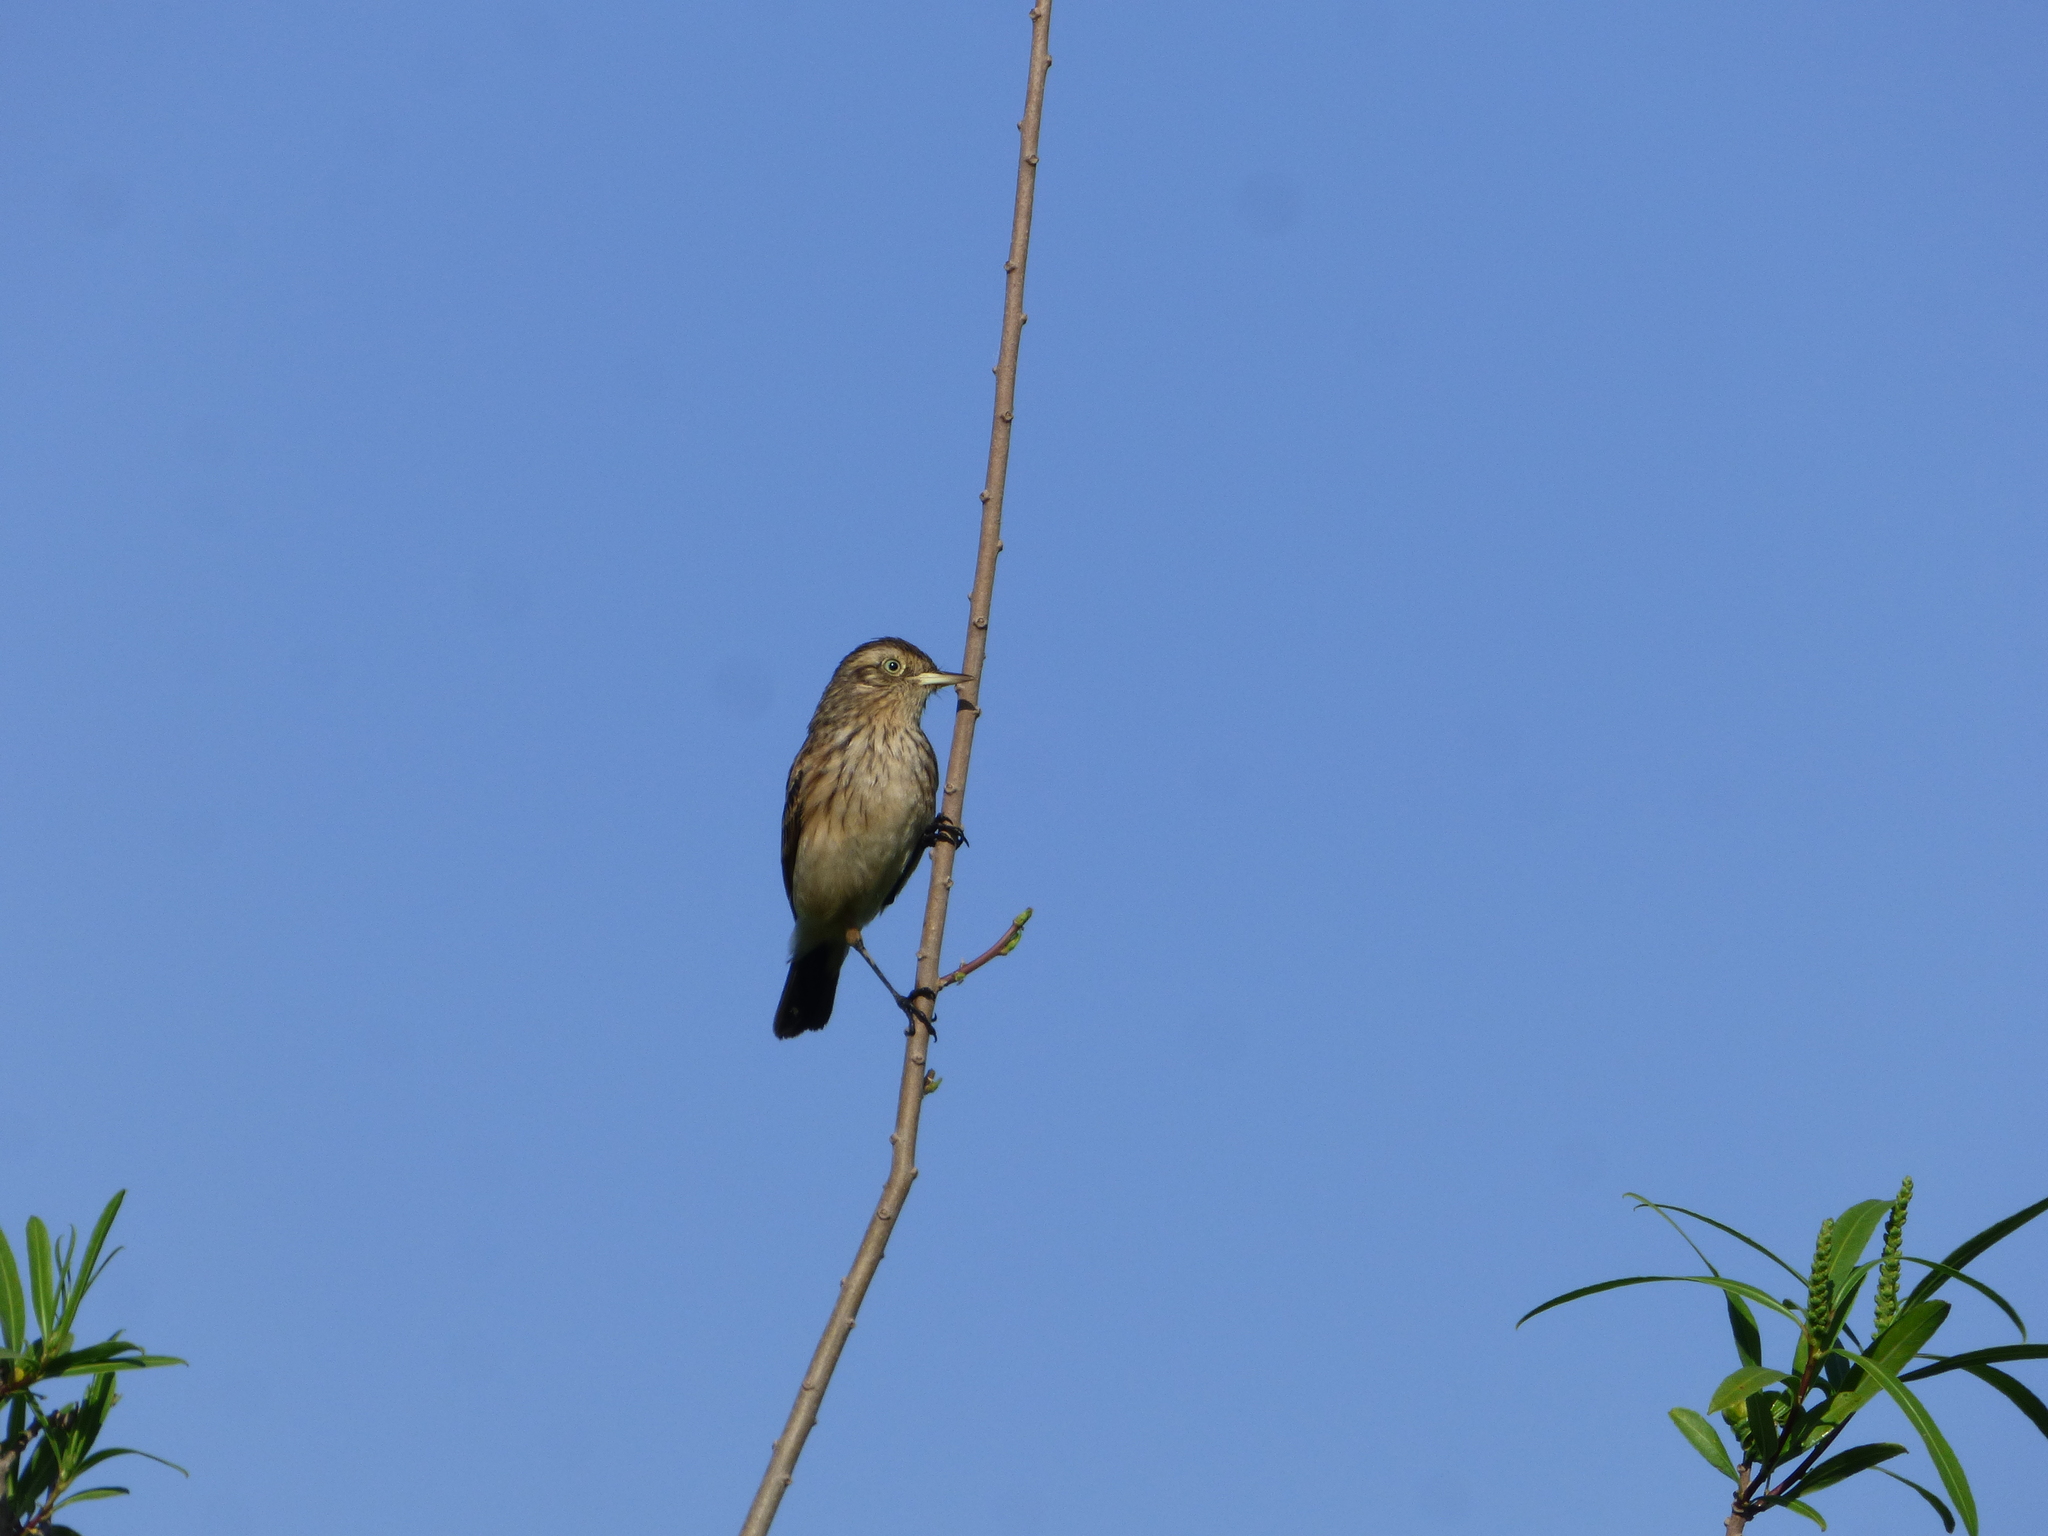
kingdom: Animalia
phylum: Chordata
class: Aves
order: Passeriformes
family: Tyrannidae
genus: Hymenops
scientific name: Hymenops perspicillatus
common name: Spectacled tyrant
